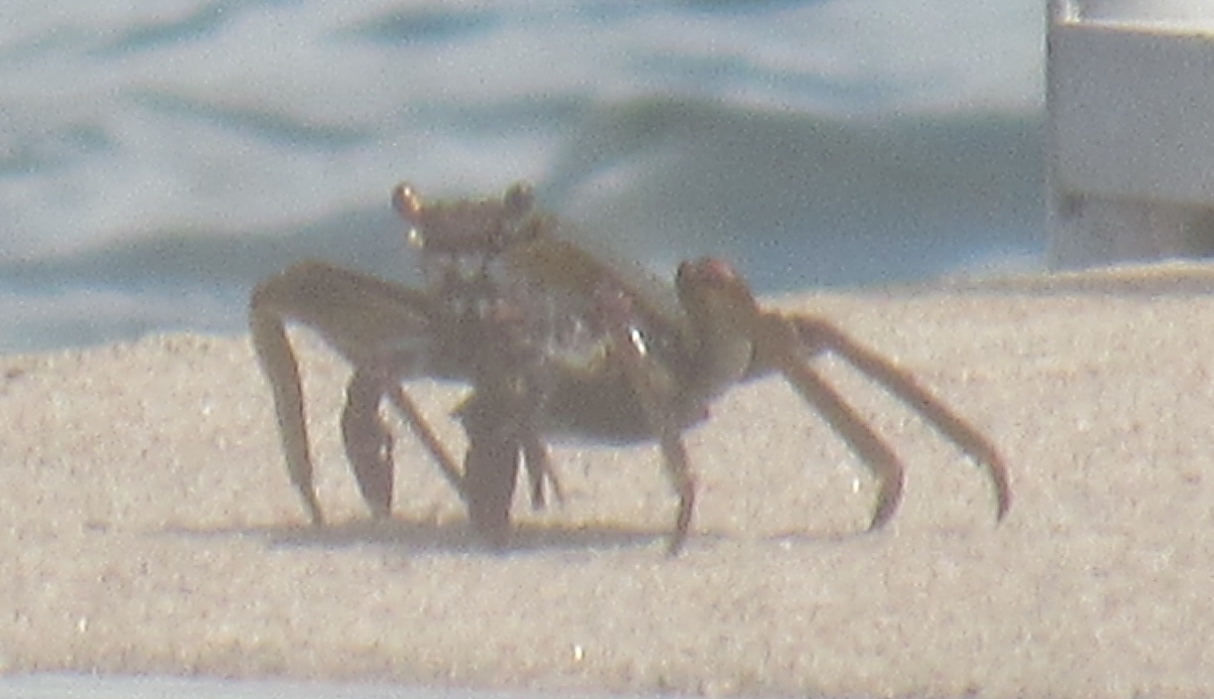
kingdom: Animalia
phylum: Arthropoda
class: Malacostraca
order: Decapoda
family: Grapsidae
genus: Grapsus
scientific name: Grapsus grapsus
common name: Sally lightfoot
